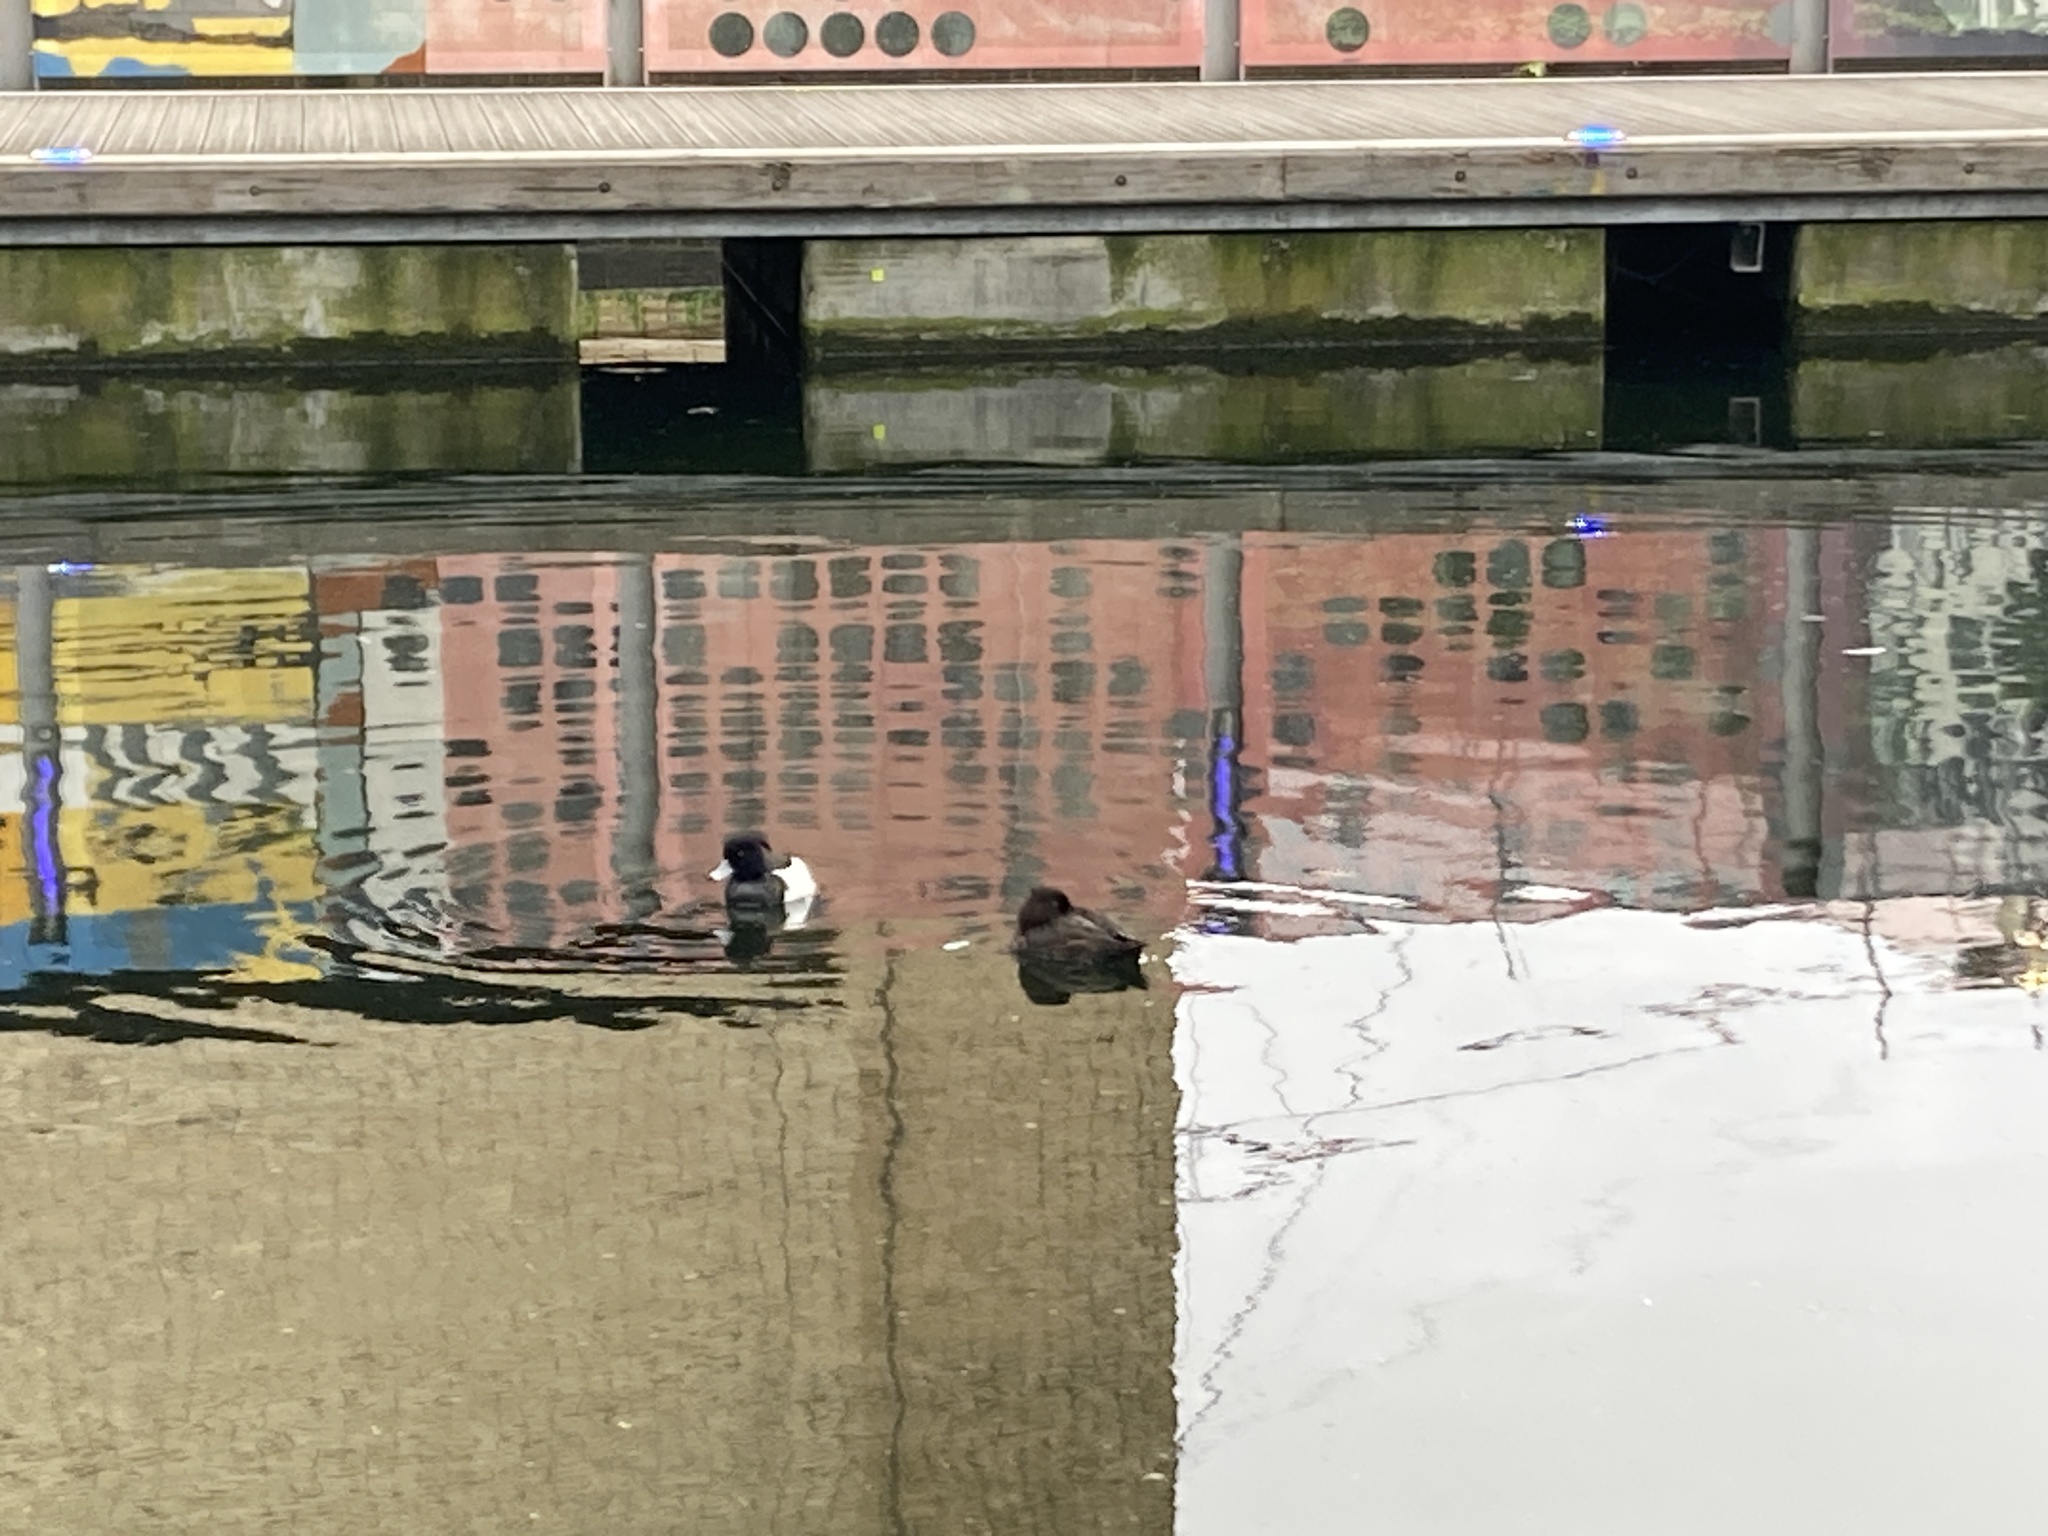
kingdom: Animalia
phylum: Chordata
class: Aves
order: Anseriformes
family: Anatidae
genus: Aythya
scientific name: Aythya fuligula
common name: Tufted duck
